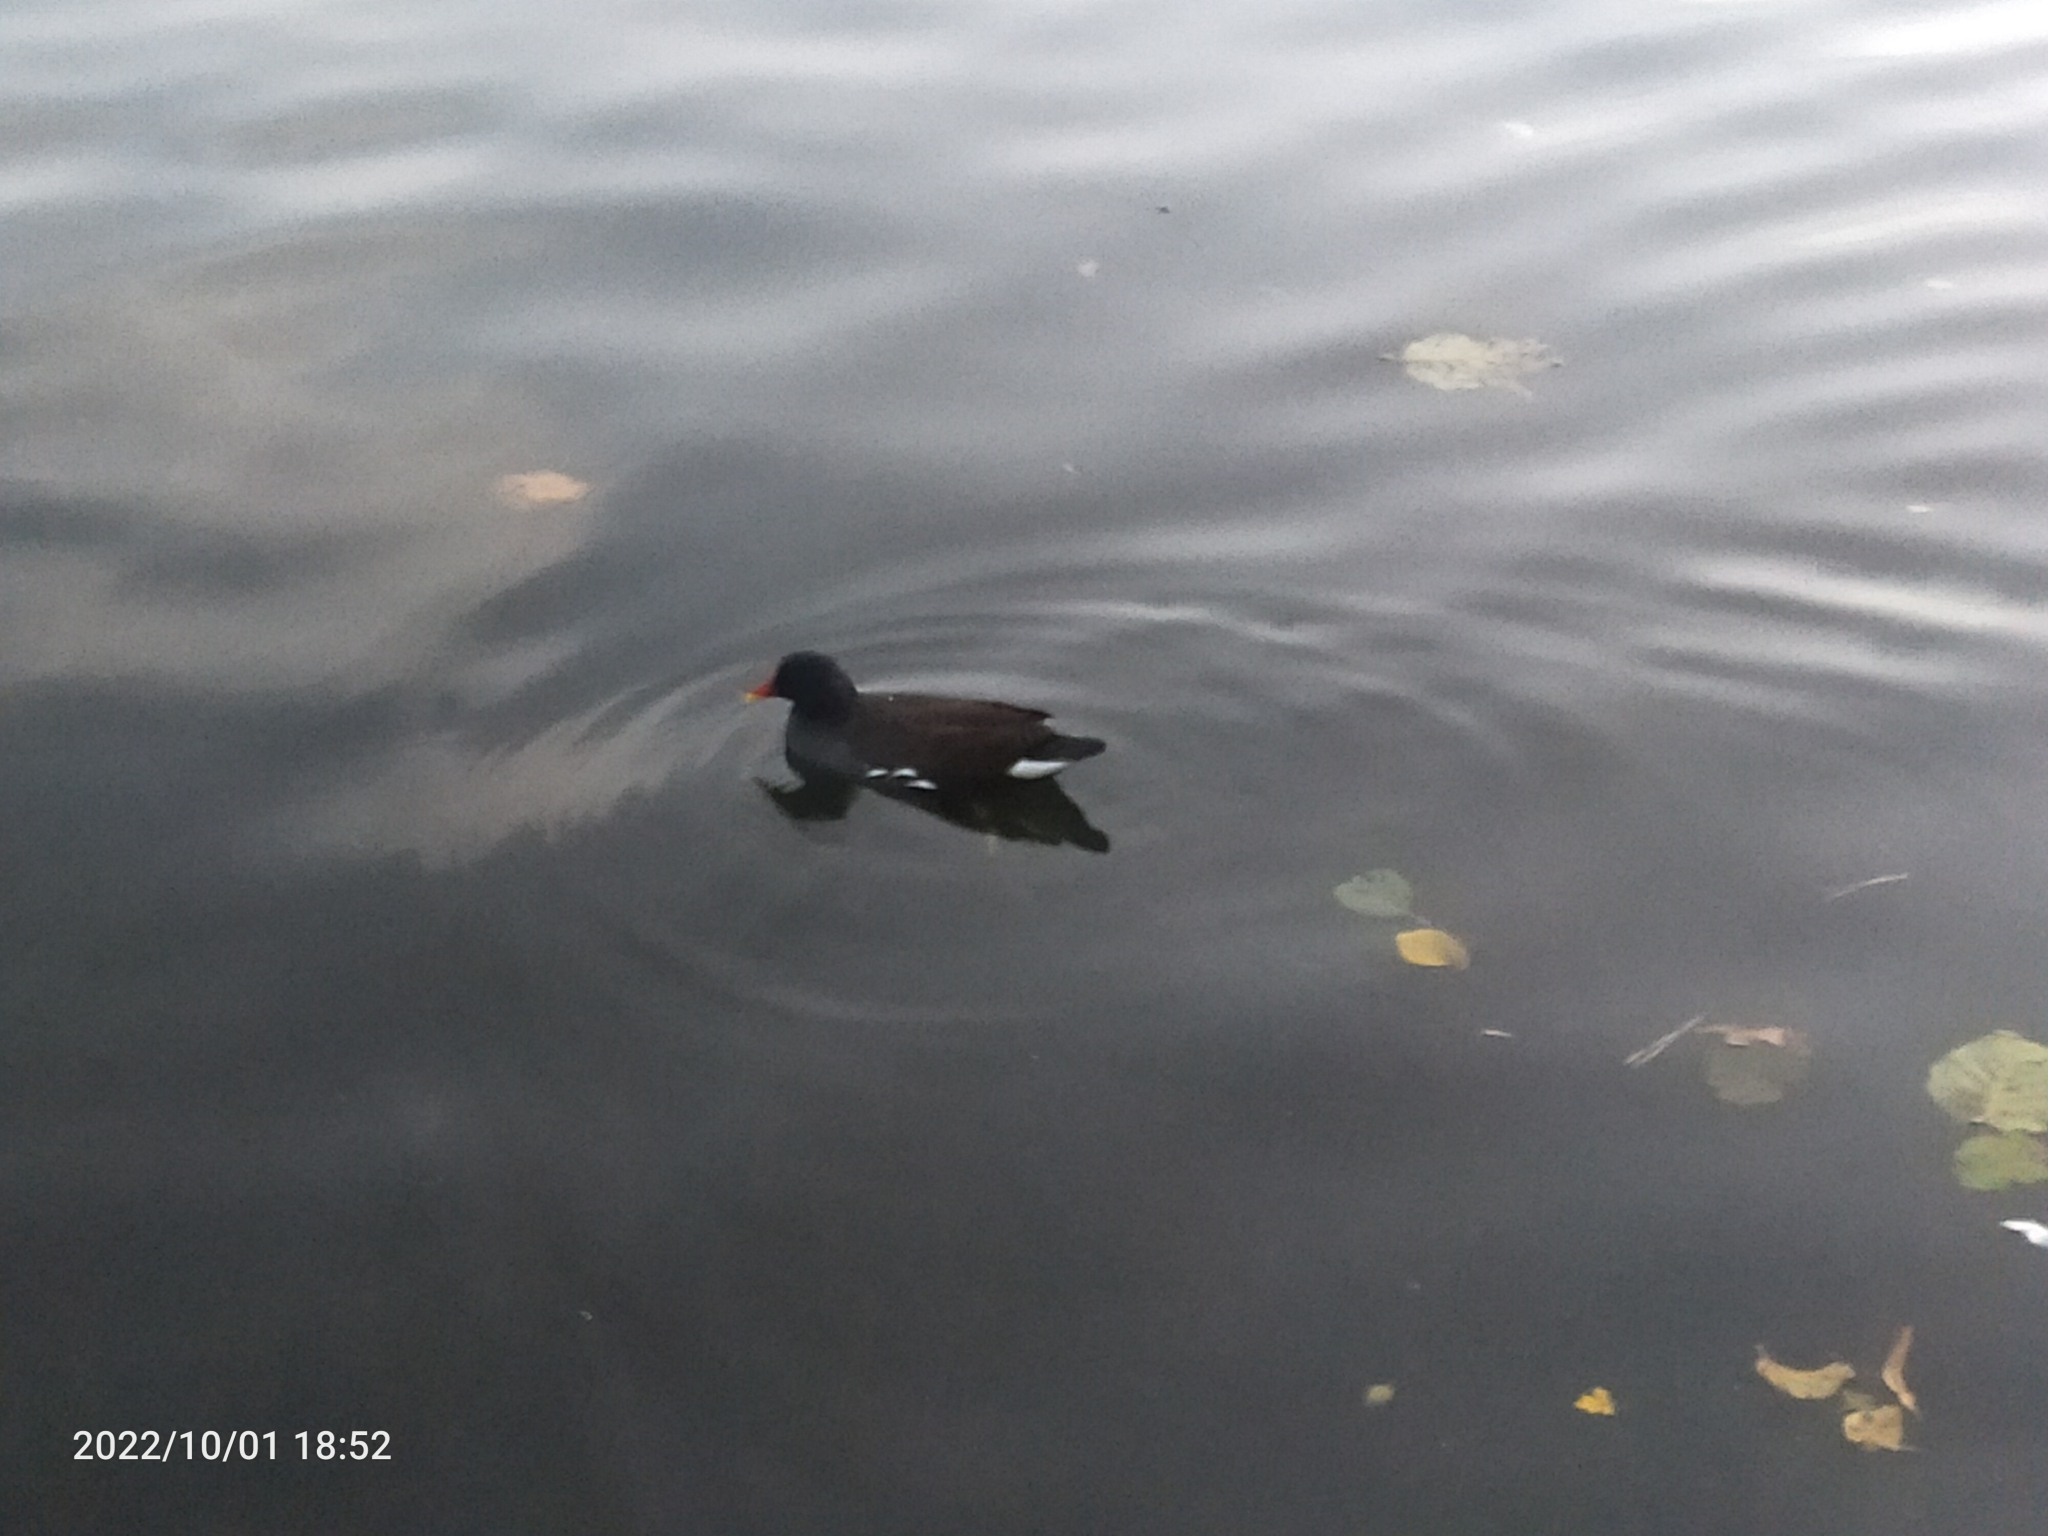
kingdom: Animalia
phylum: Chordata
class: Aves
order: Gruiformes
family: Rallidae
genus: Gallinula
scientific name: Gallinula chloropus
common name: Common moorhen
